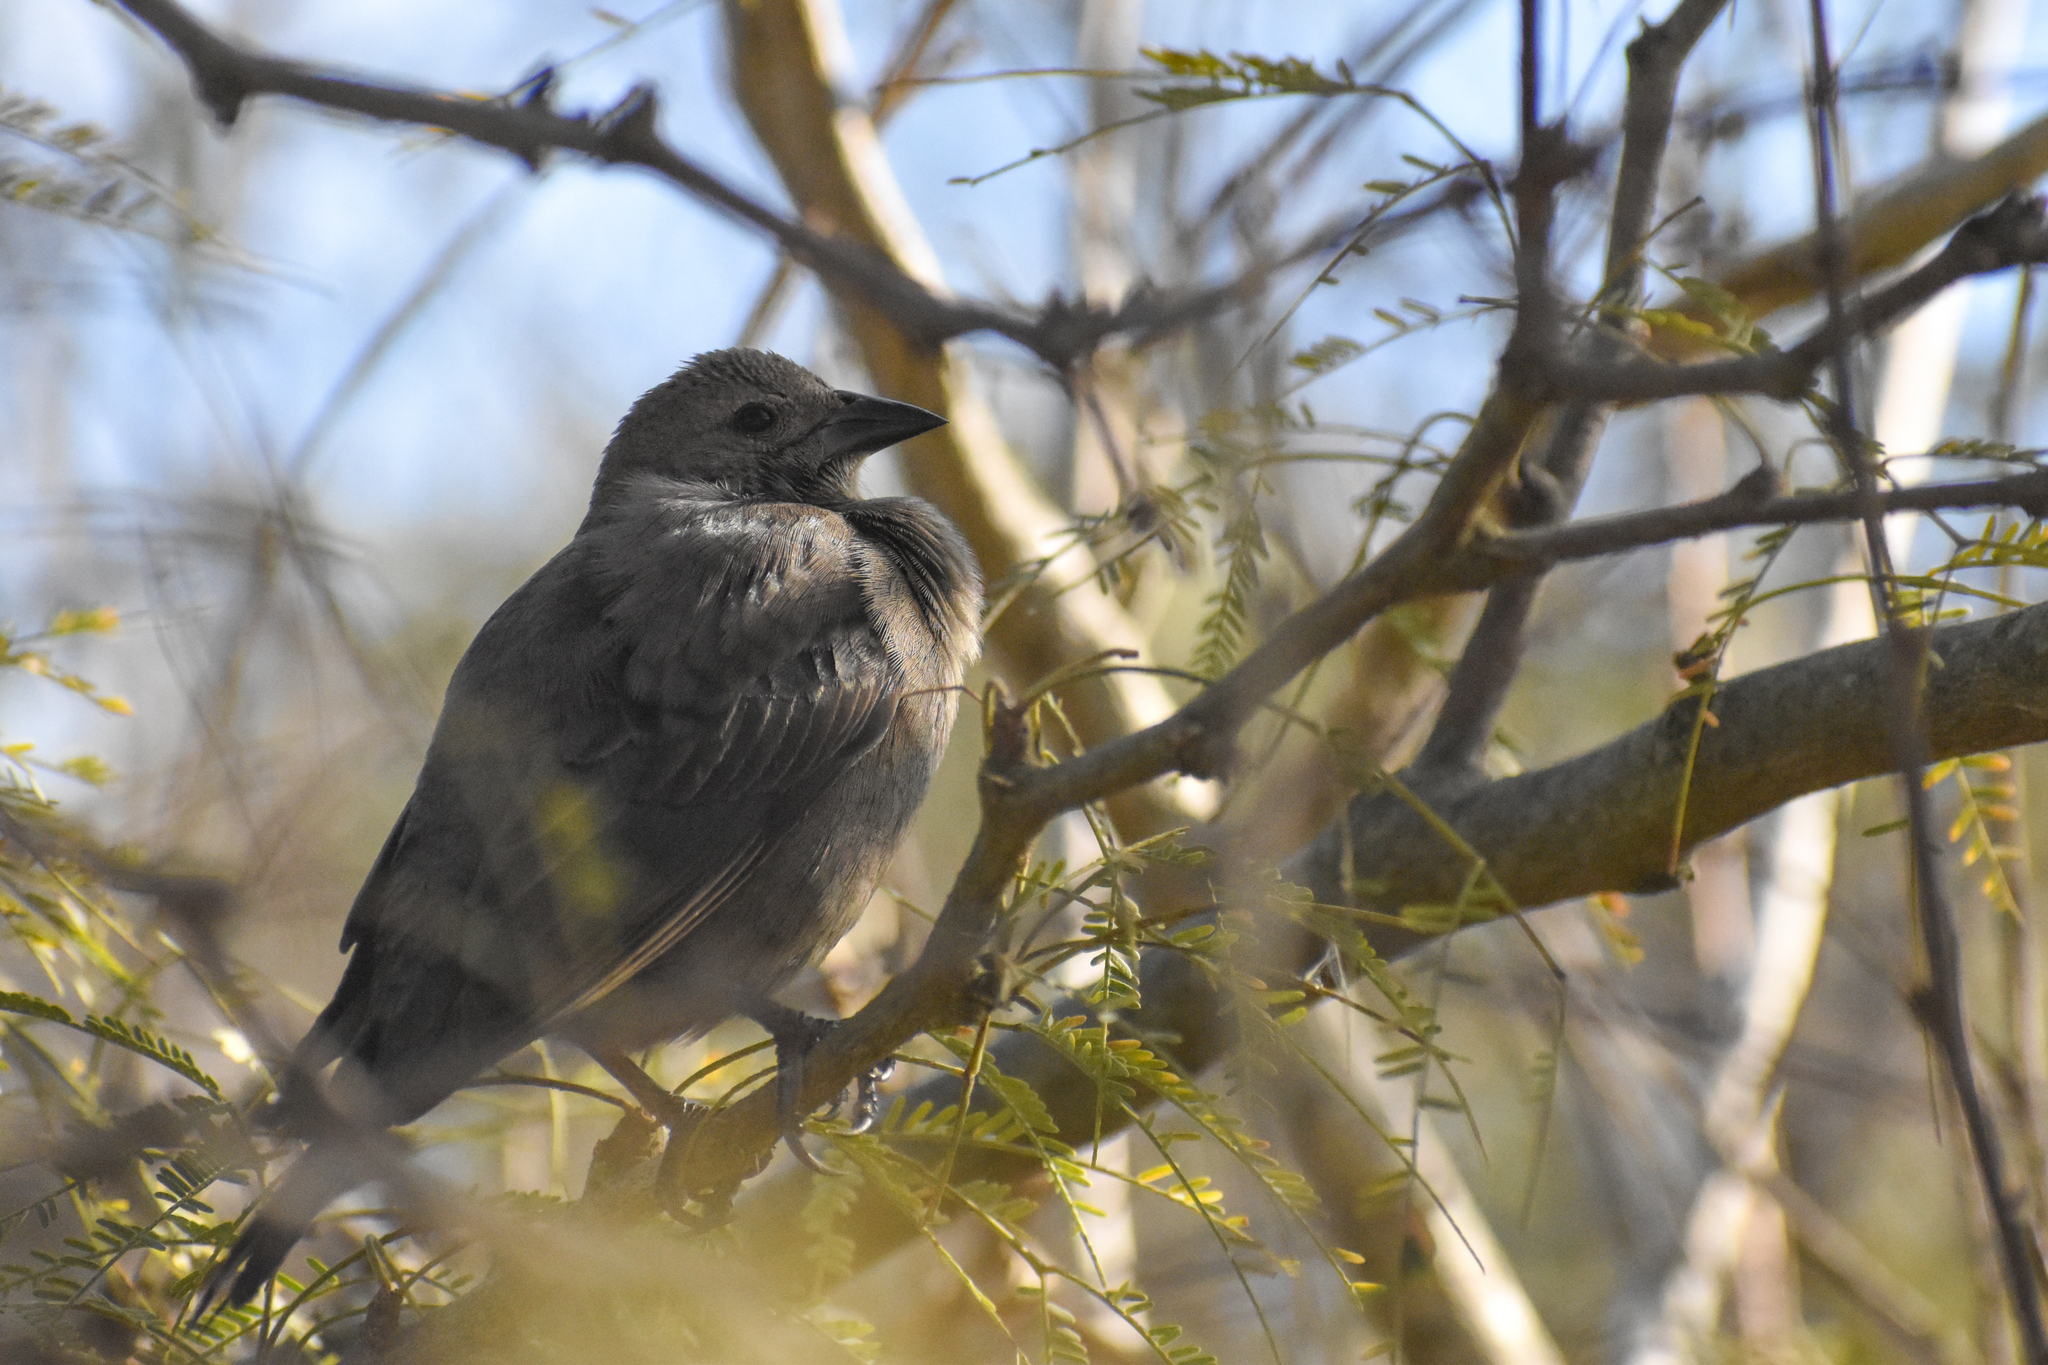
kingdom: Animalia
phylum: Chordata
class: Aves
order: Passeriformes
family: Icteridae
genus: Molothrus
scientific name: Molothrus bonariensis
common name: Shiny cowbird
